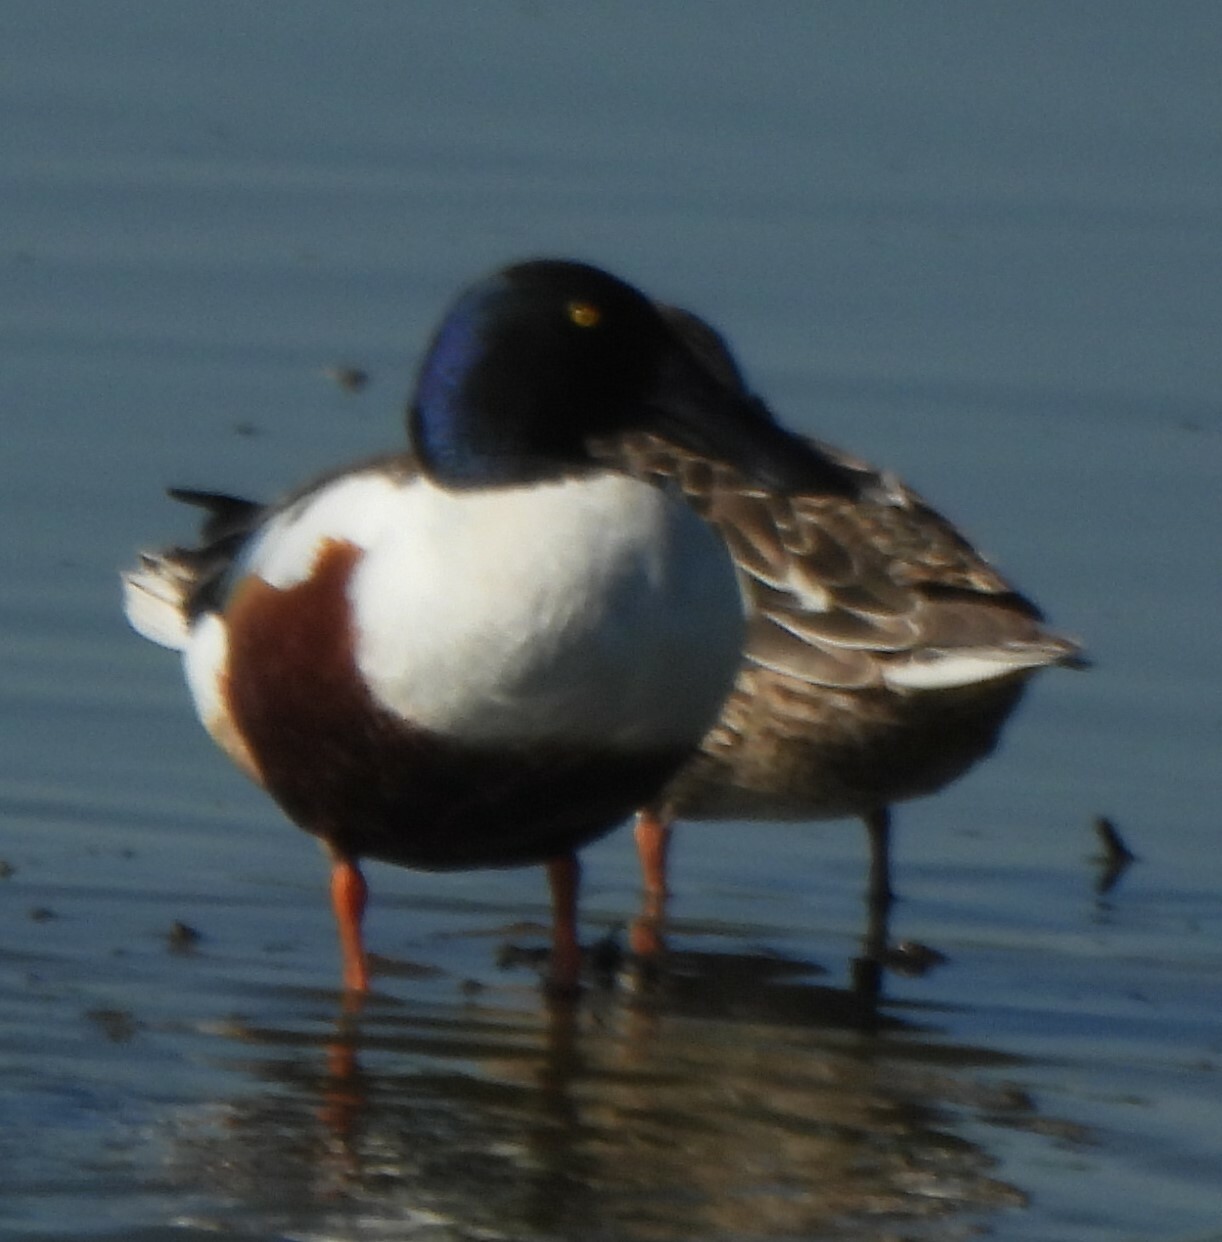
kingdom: Animalia
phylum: Chordata
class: Aves
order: Anseriformes
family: Anatidae
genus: Spatula
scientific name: Spatula clypeata
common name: Northern shoveler
